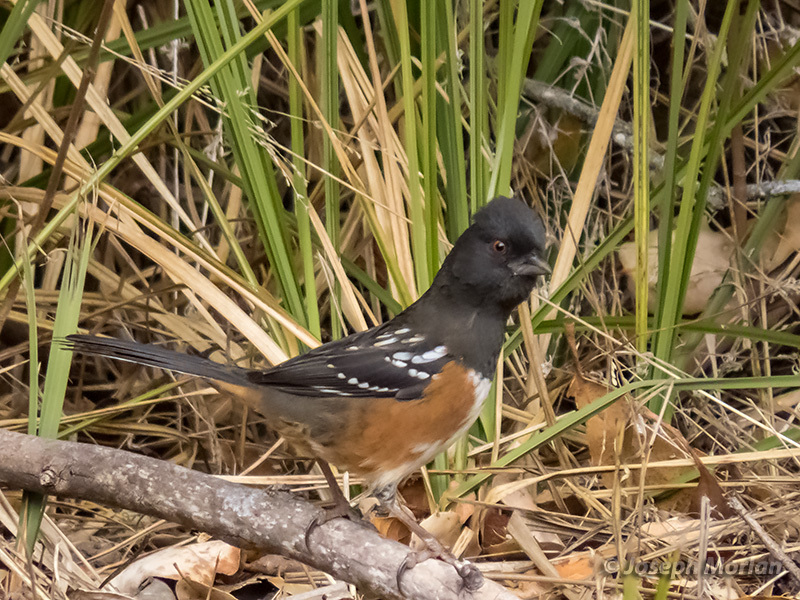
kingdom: Animalia
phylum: Chordata
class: Aves
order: Passeriformes
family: Passerellidae
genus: Pipilo
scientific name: Pipilo maculatus
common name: Spotted towhee
